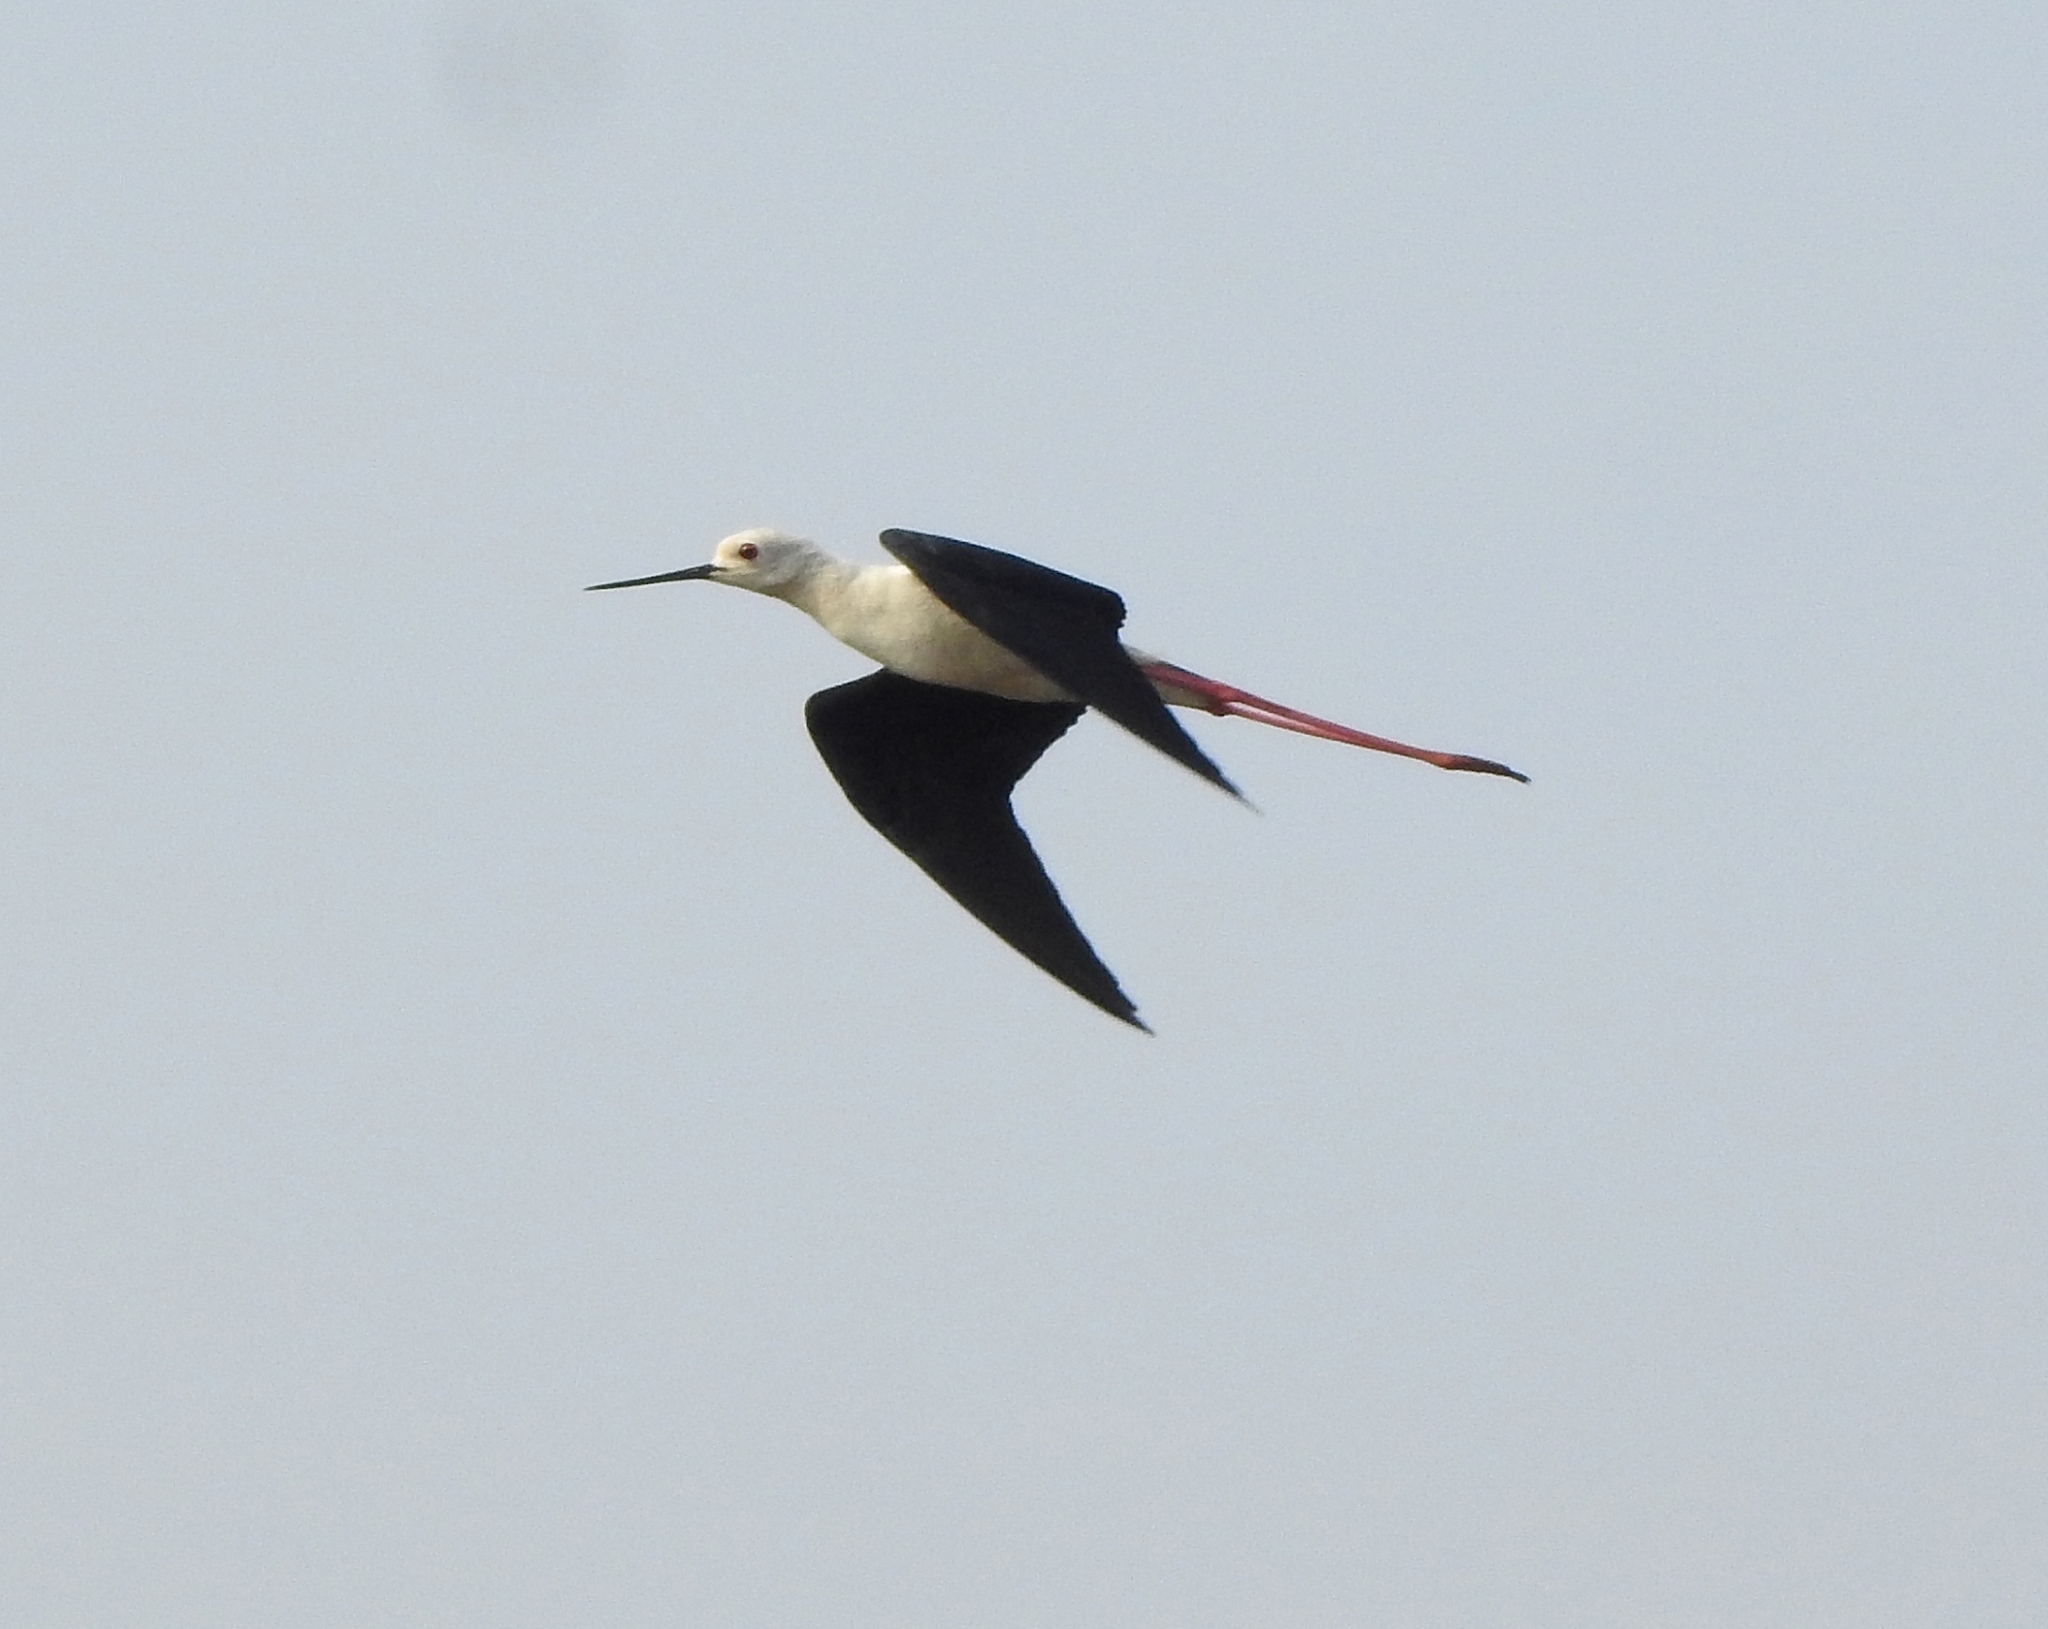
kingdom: Animalia
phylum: Chordata
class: Aves
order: Charadriiformes
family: Recurvirostridae
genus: Himantopus
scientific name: Himantopus himantopus
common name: Black-winged stilt
